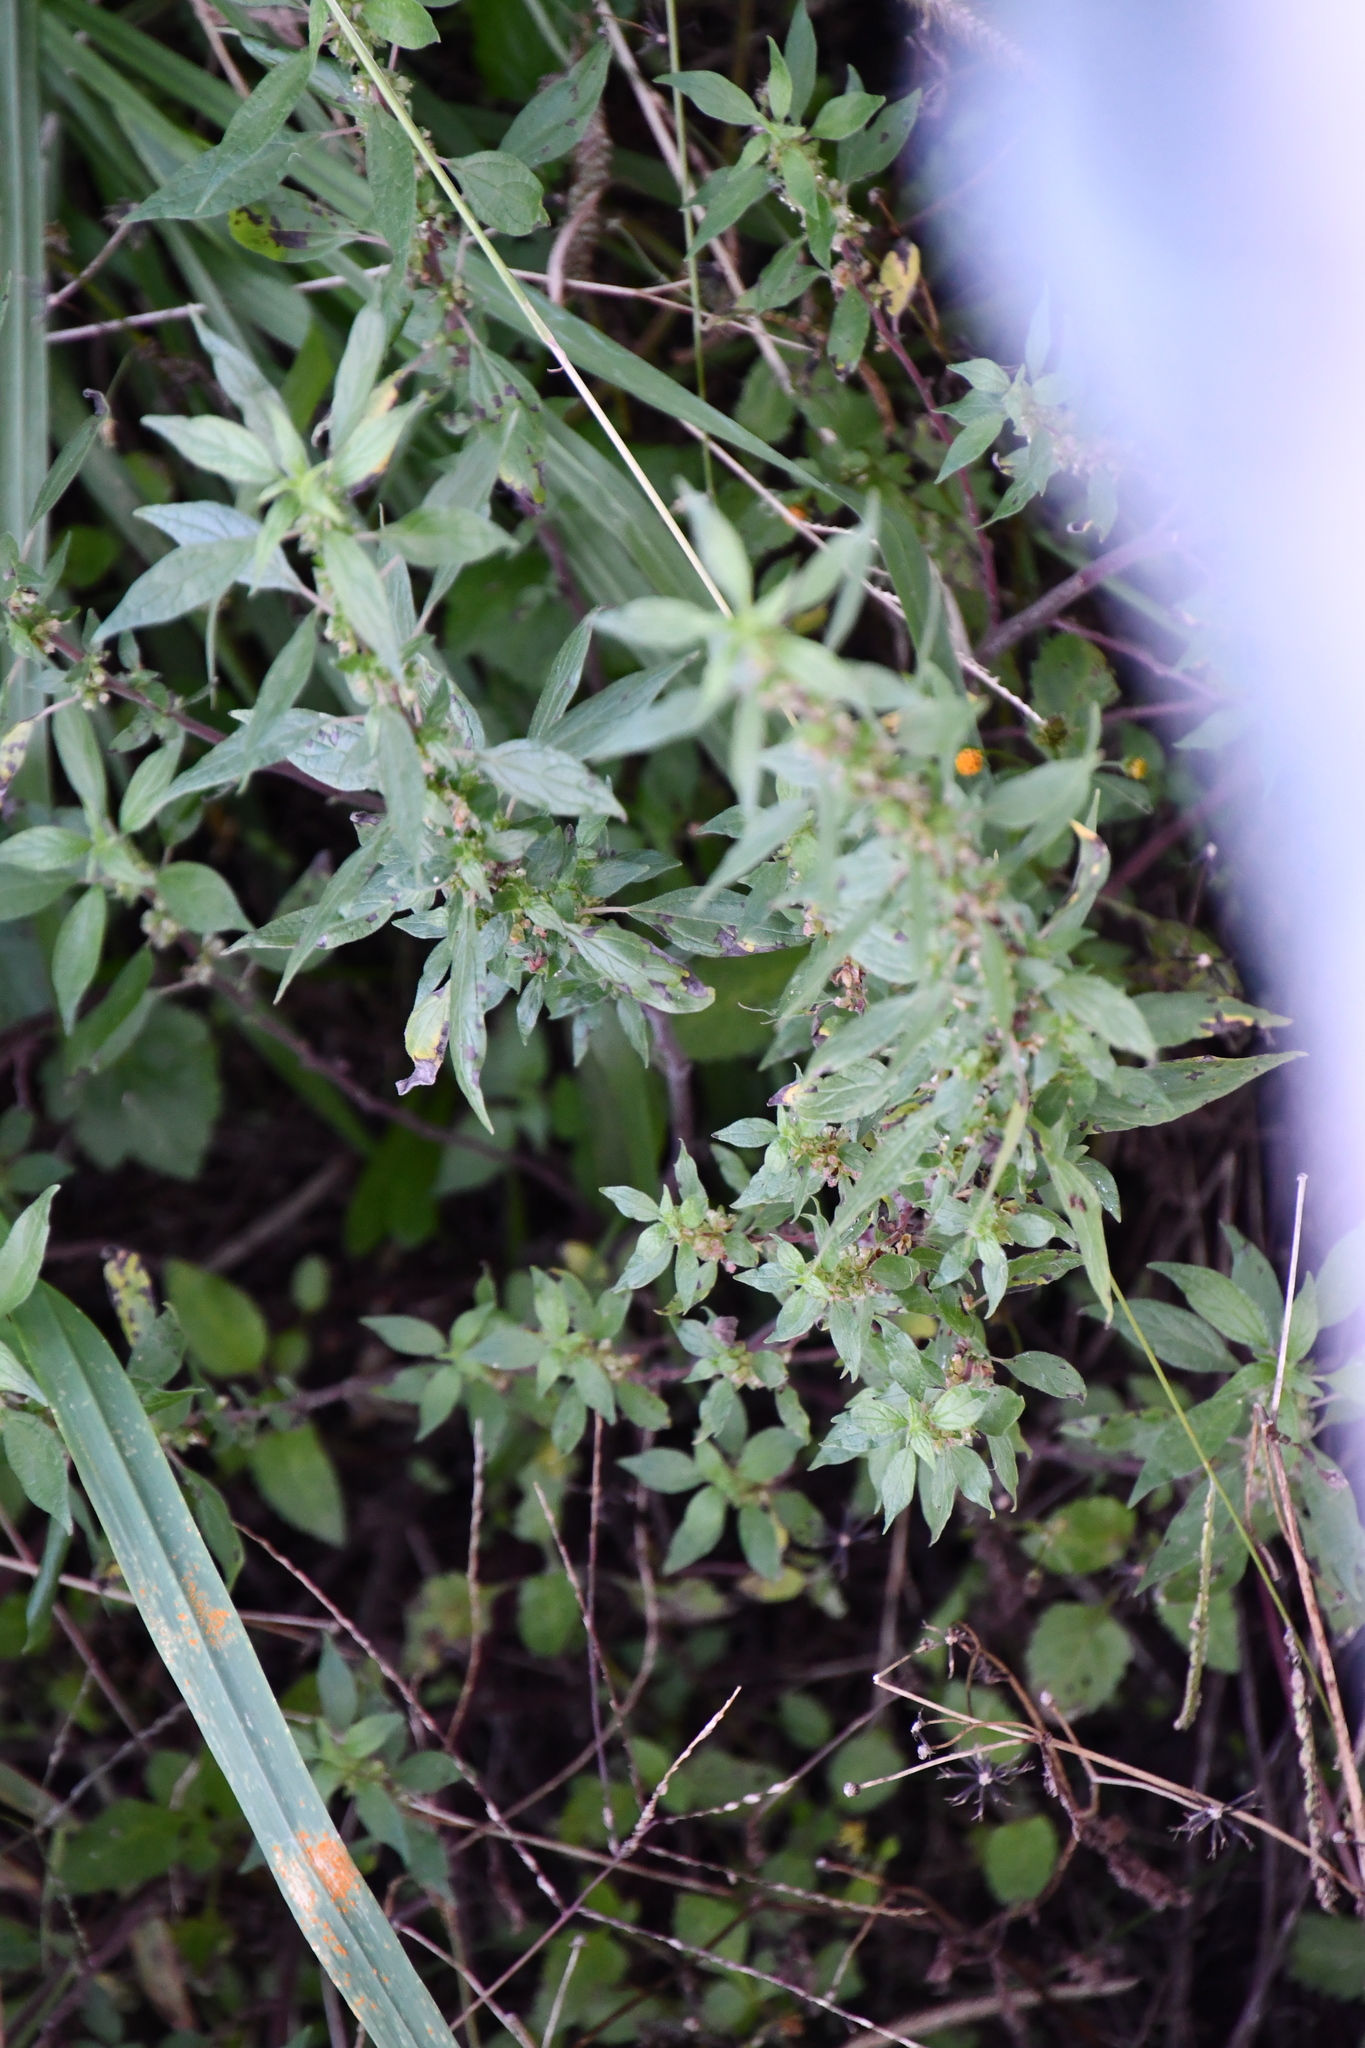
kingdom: Plantae
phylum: Tracheophyta
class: Magnoliopsida
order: Rosales
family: Urticaceae
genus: Parietaria
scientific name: Parietaria judaica
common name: Pellitory-of-the-wall
